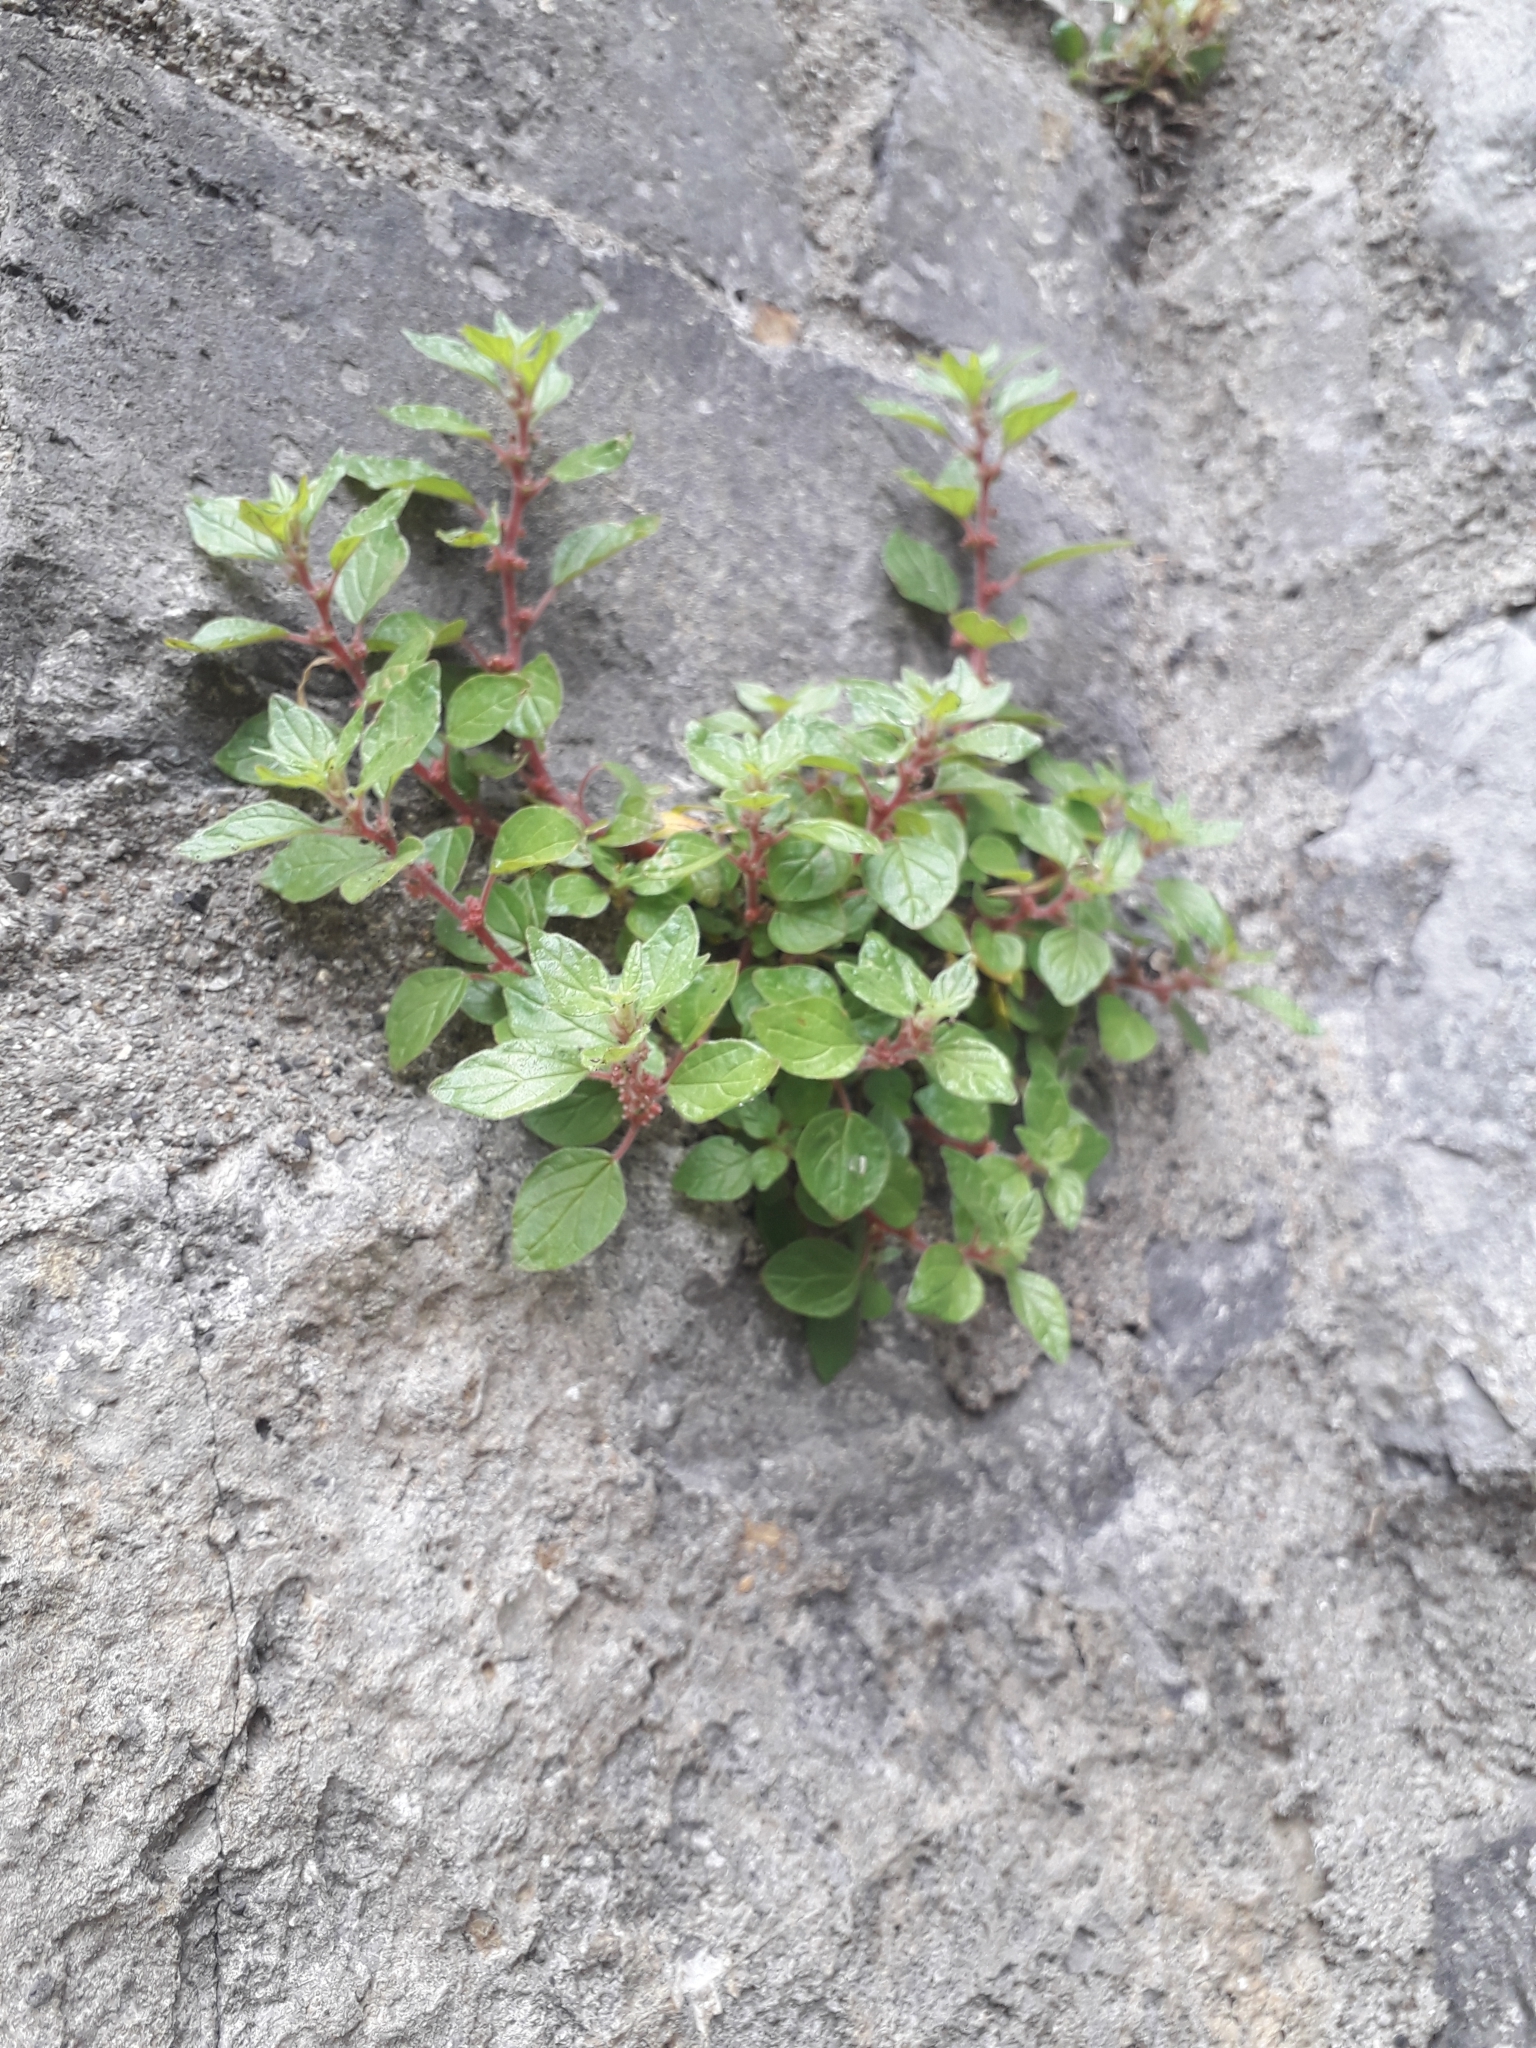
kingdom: Plantae
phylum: Tracheophyta
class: Magnoliopsida
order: Rosales
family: Urticaceae
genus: Parietaria
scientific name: Parietaria judaica
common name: Pellitory-of-the-wall
